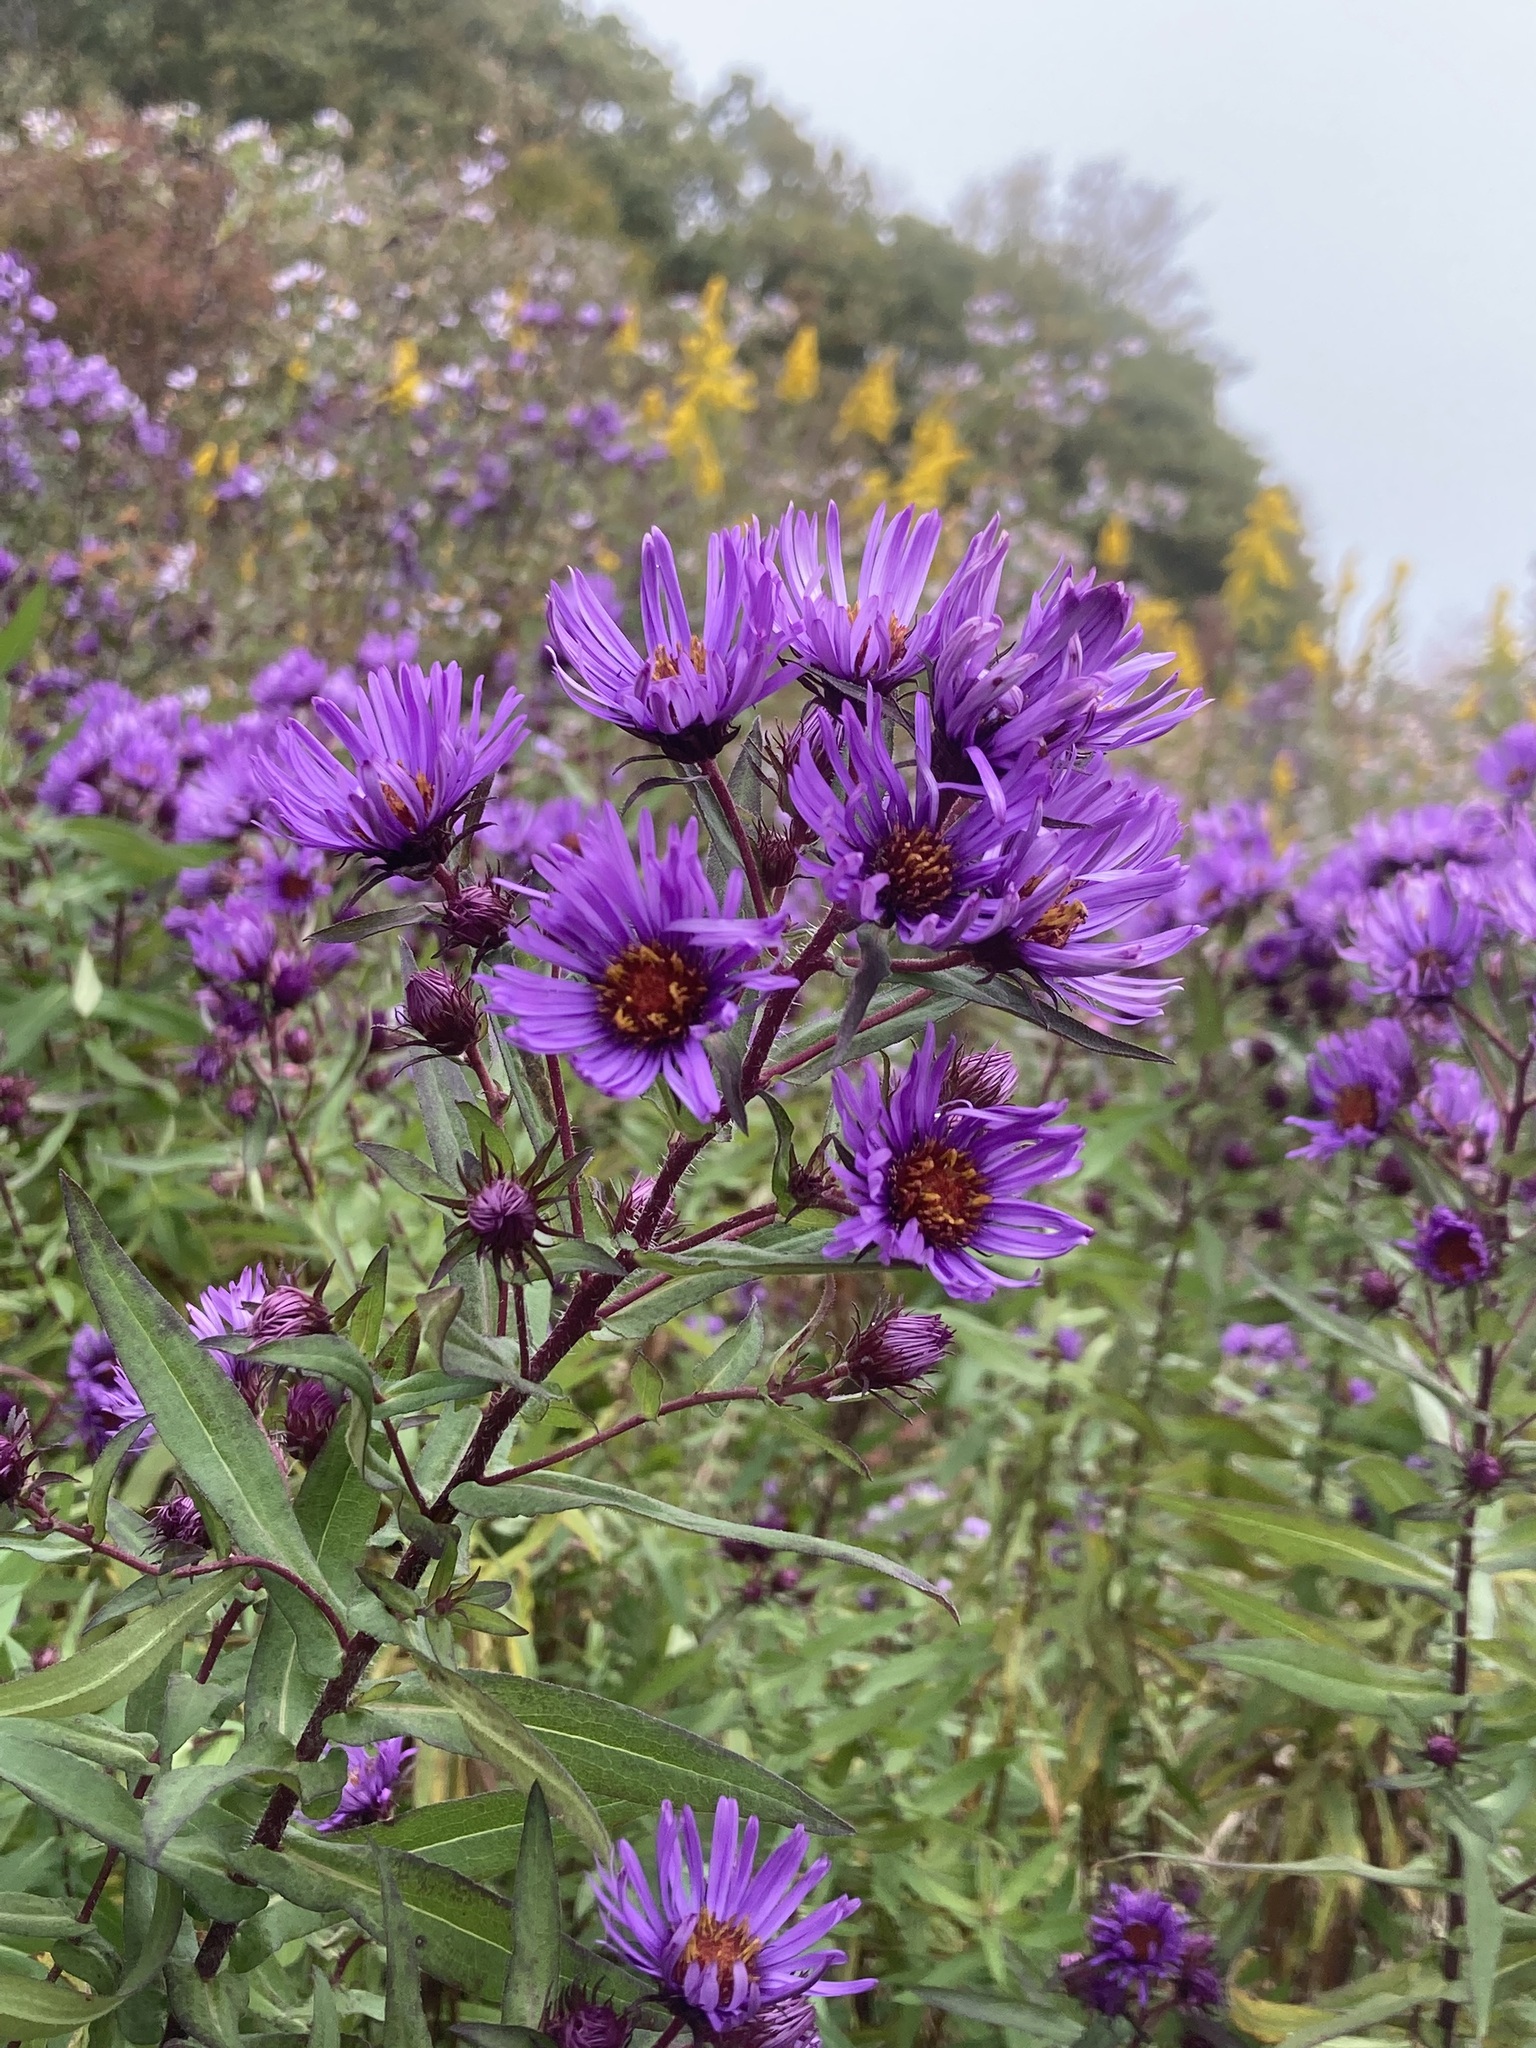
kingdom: Plantae
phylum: Tracheophyta
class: Magnoliopsida
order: Asterales
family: Asteraceae
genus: Symphyotrichum
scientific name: Symphyotrichum novae-angliae
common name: Michaelmas daisy
